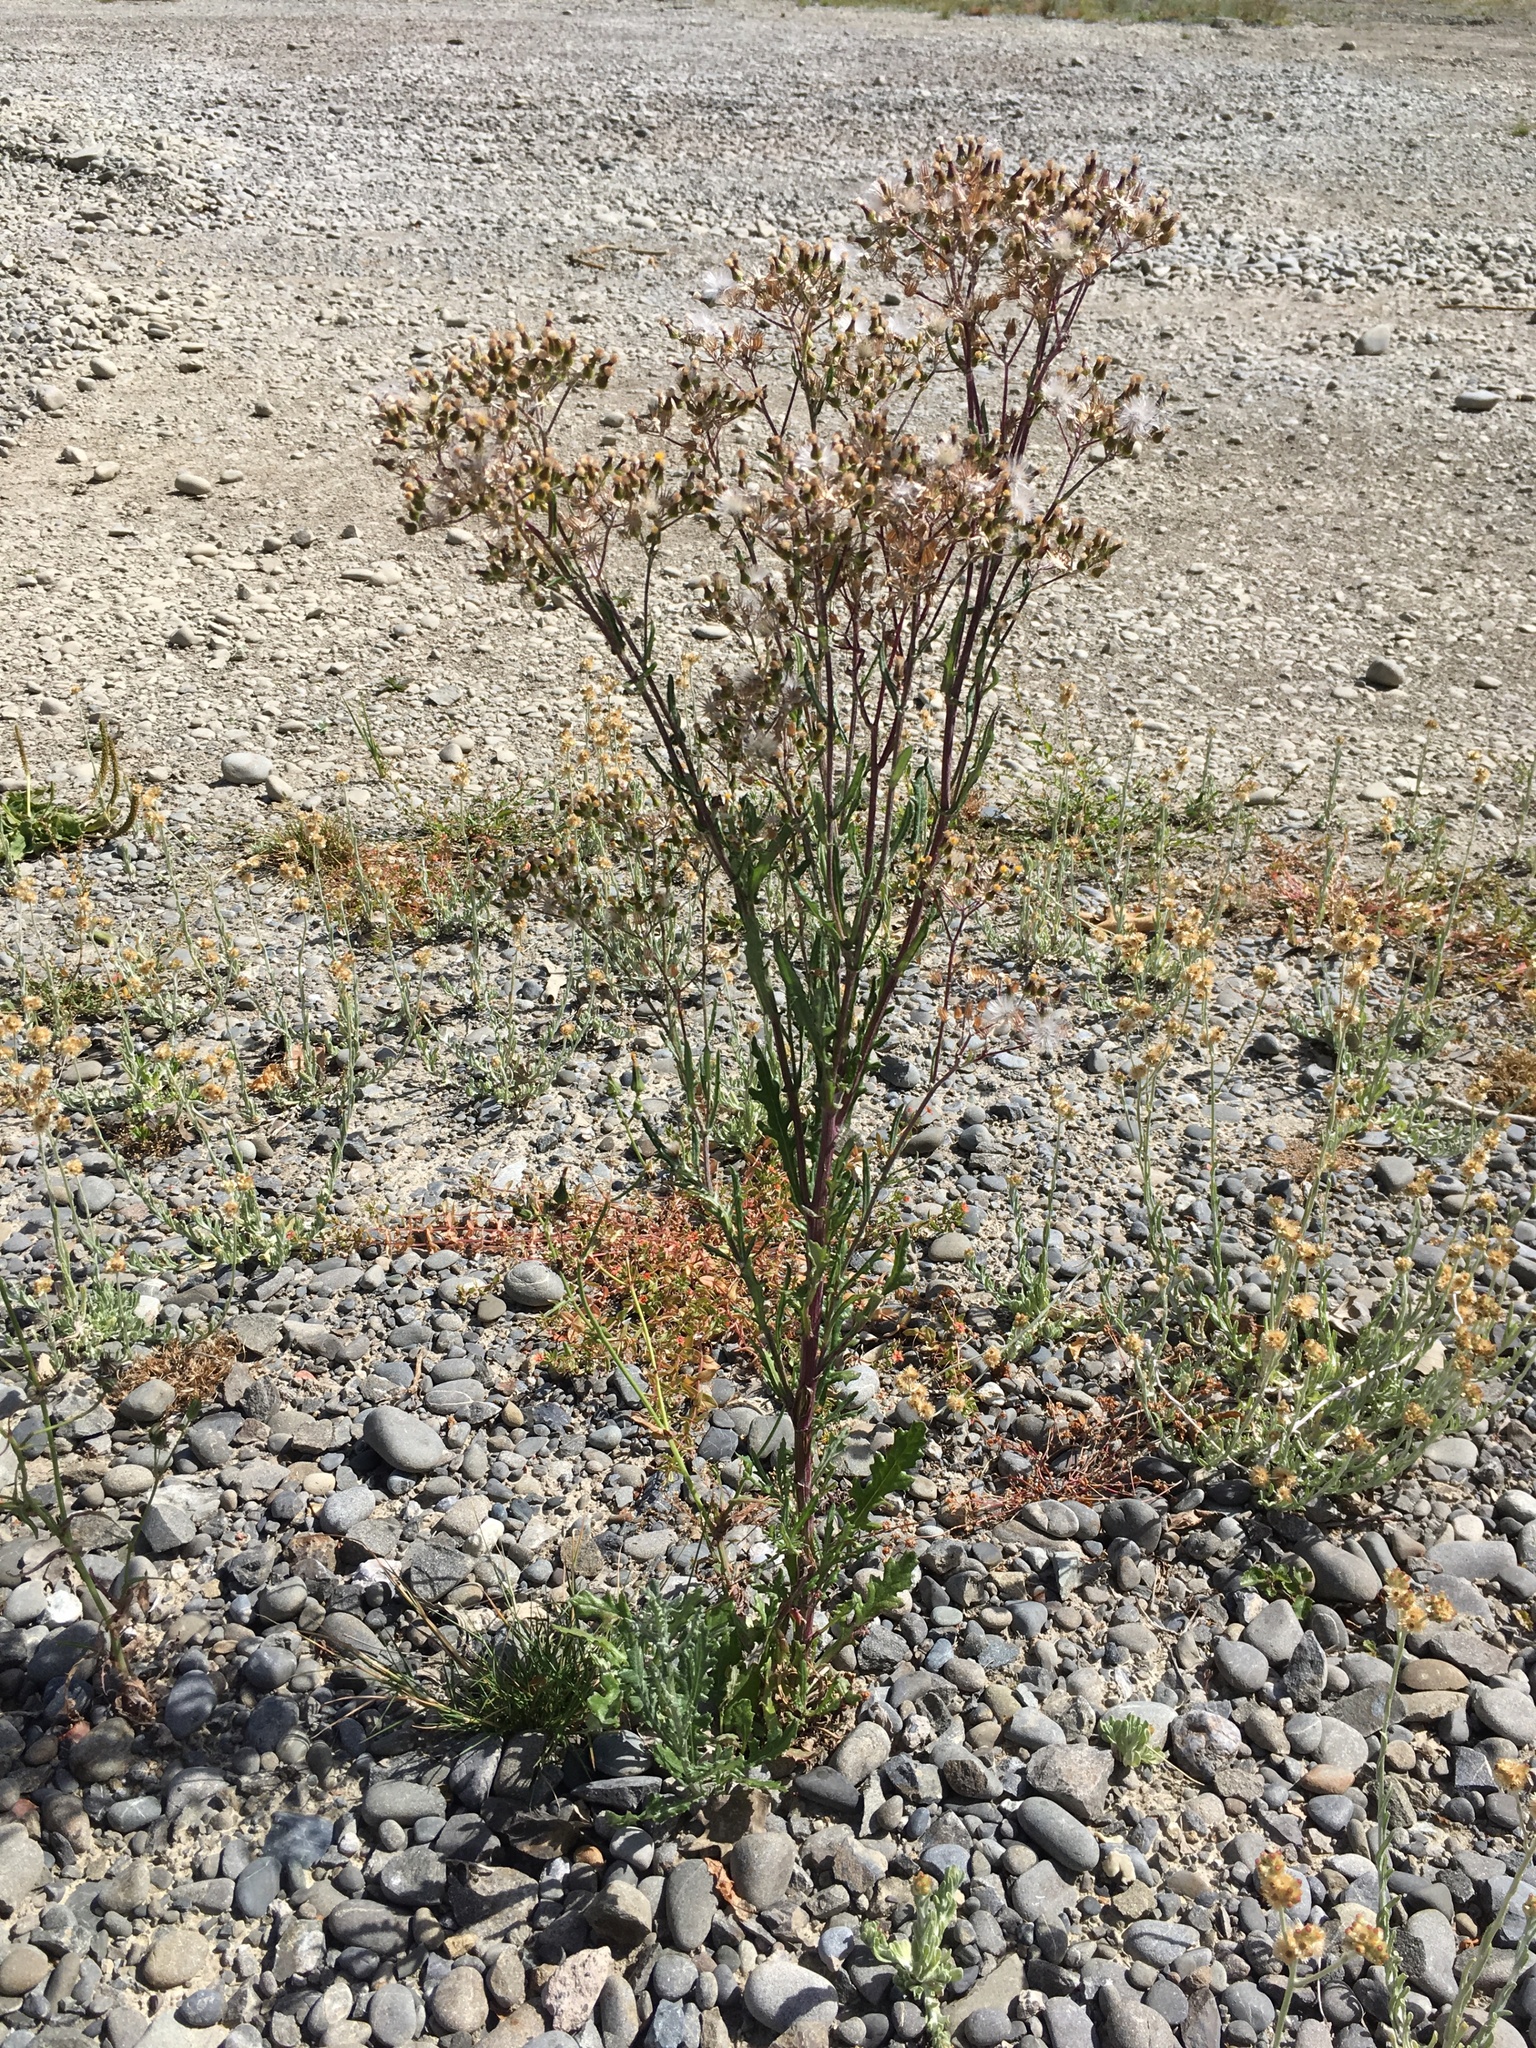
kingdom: Plantae
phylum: Tracheophyta
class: Magnoliopsida
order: Asterales
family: Asteraceae
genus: Senecio
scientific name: Senecio glomeratus
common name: Cutleaf burnweed
